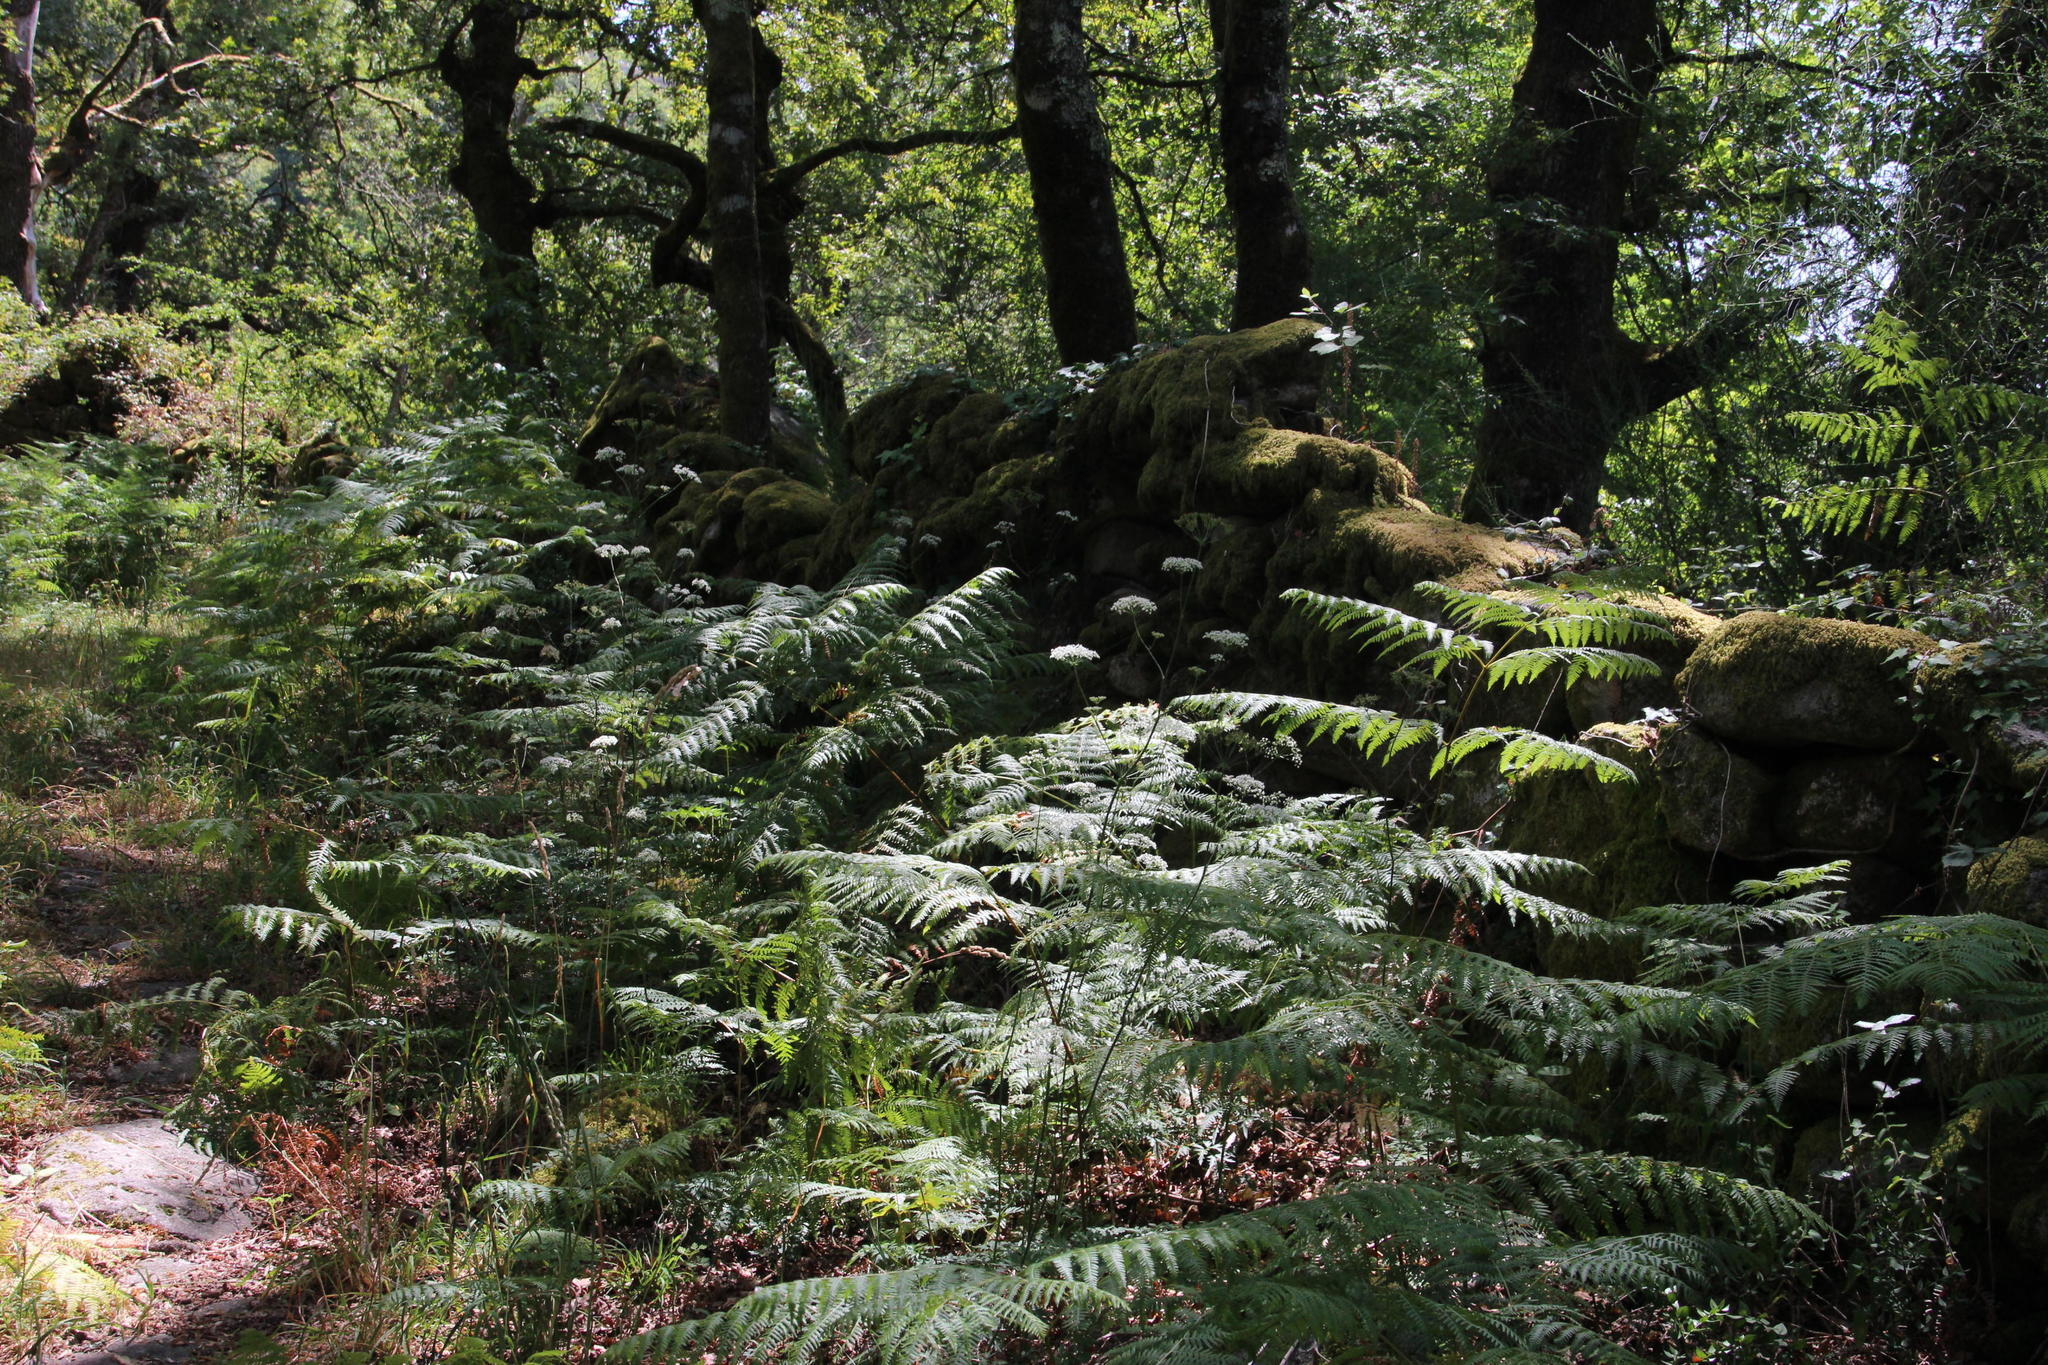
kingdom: Plantae
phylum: Tracheophyta
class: Polypodiopsida
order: Polypodiales
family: Dennstaedtiaceae
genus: Pteridium
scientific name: Pteridium aquilinum
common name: Bracken
